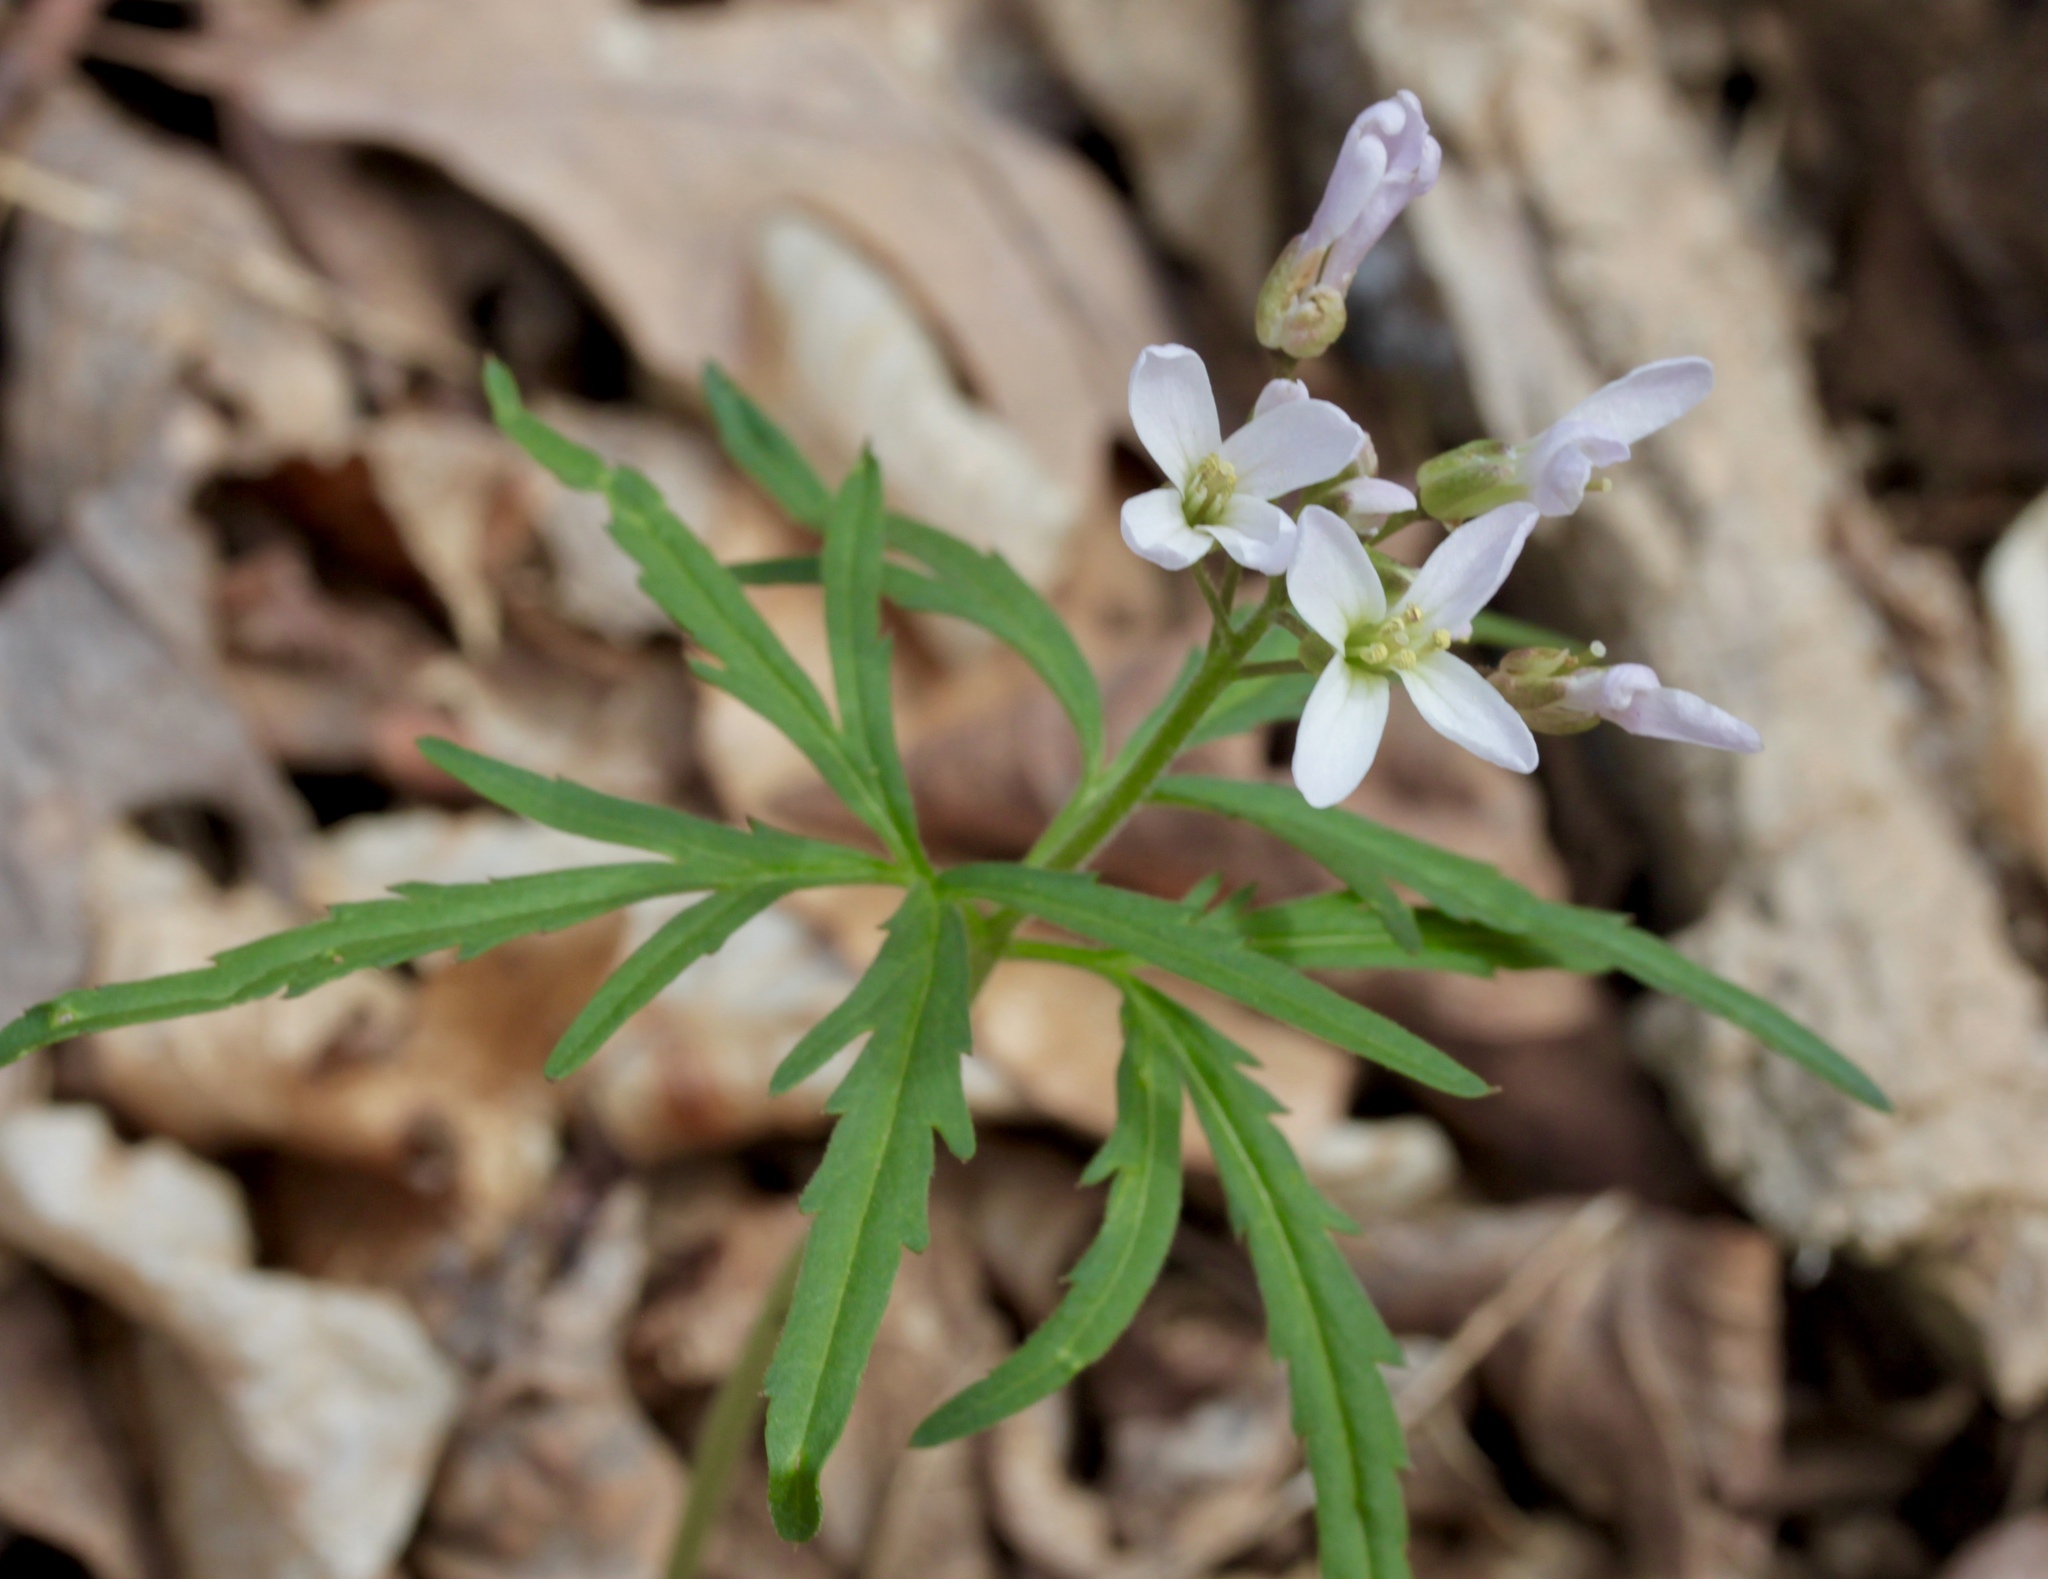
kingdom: Plantae
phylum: Tracheophyta
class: Magnoliopsida
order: Brassicales
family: Brassicaceae
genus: Cardamine
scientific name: Cardamine concatenata
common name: Cut-leaf toothcup
